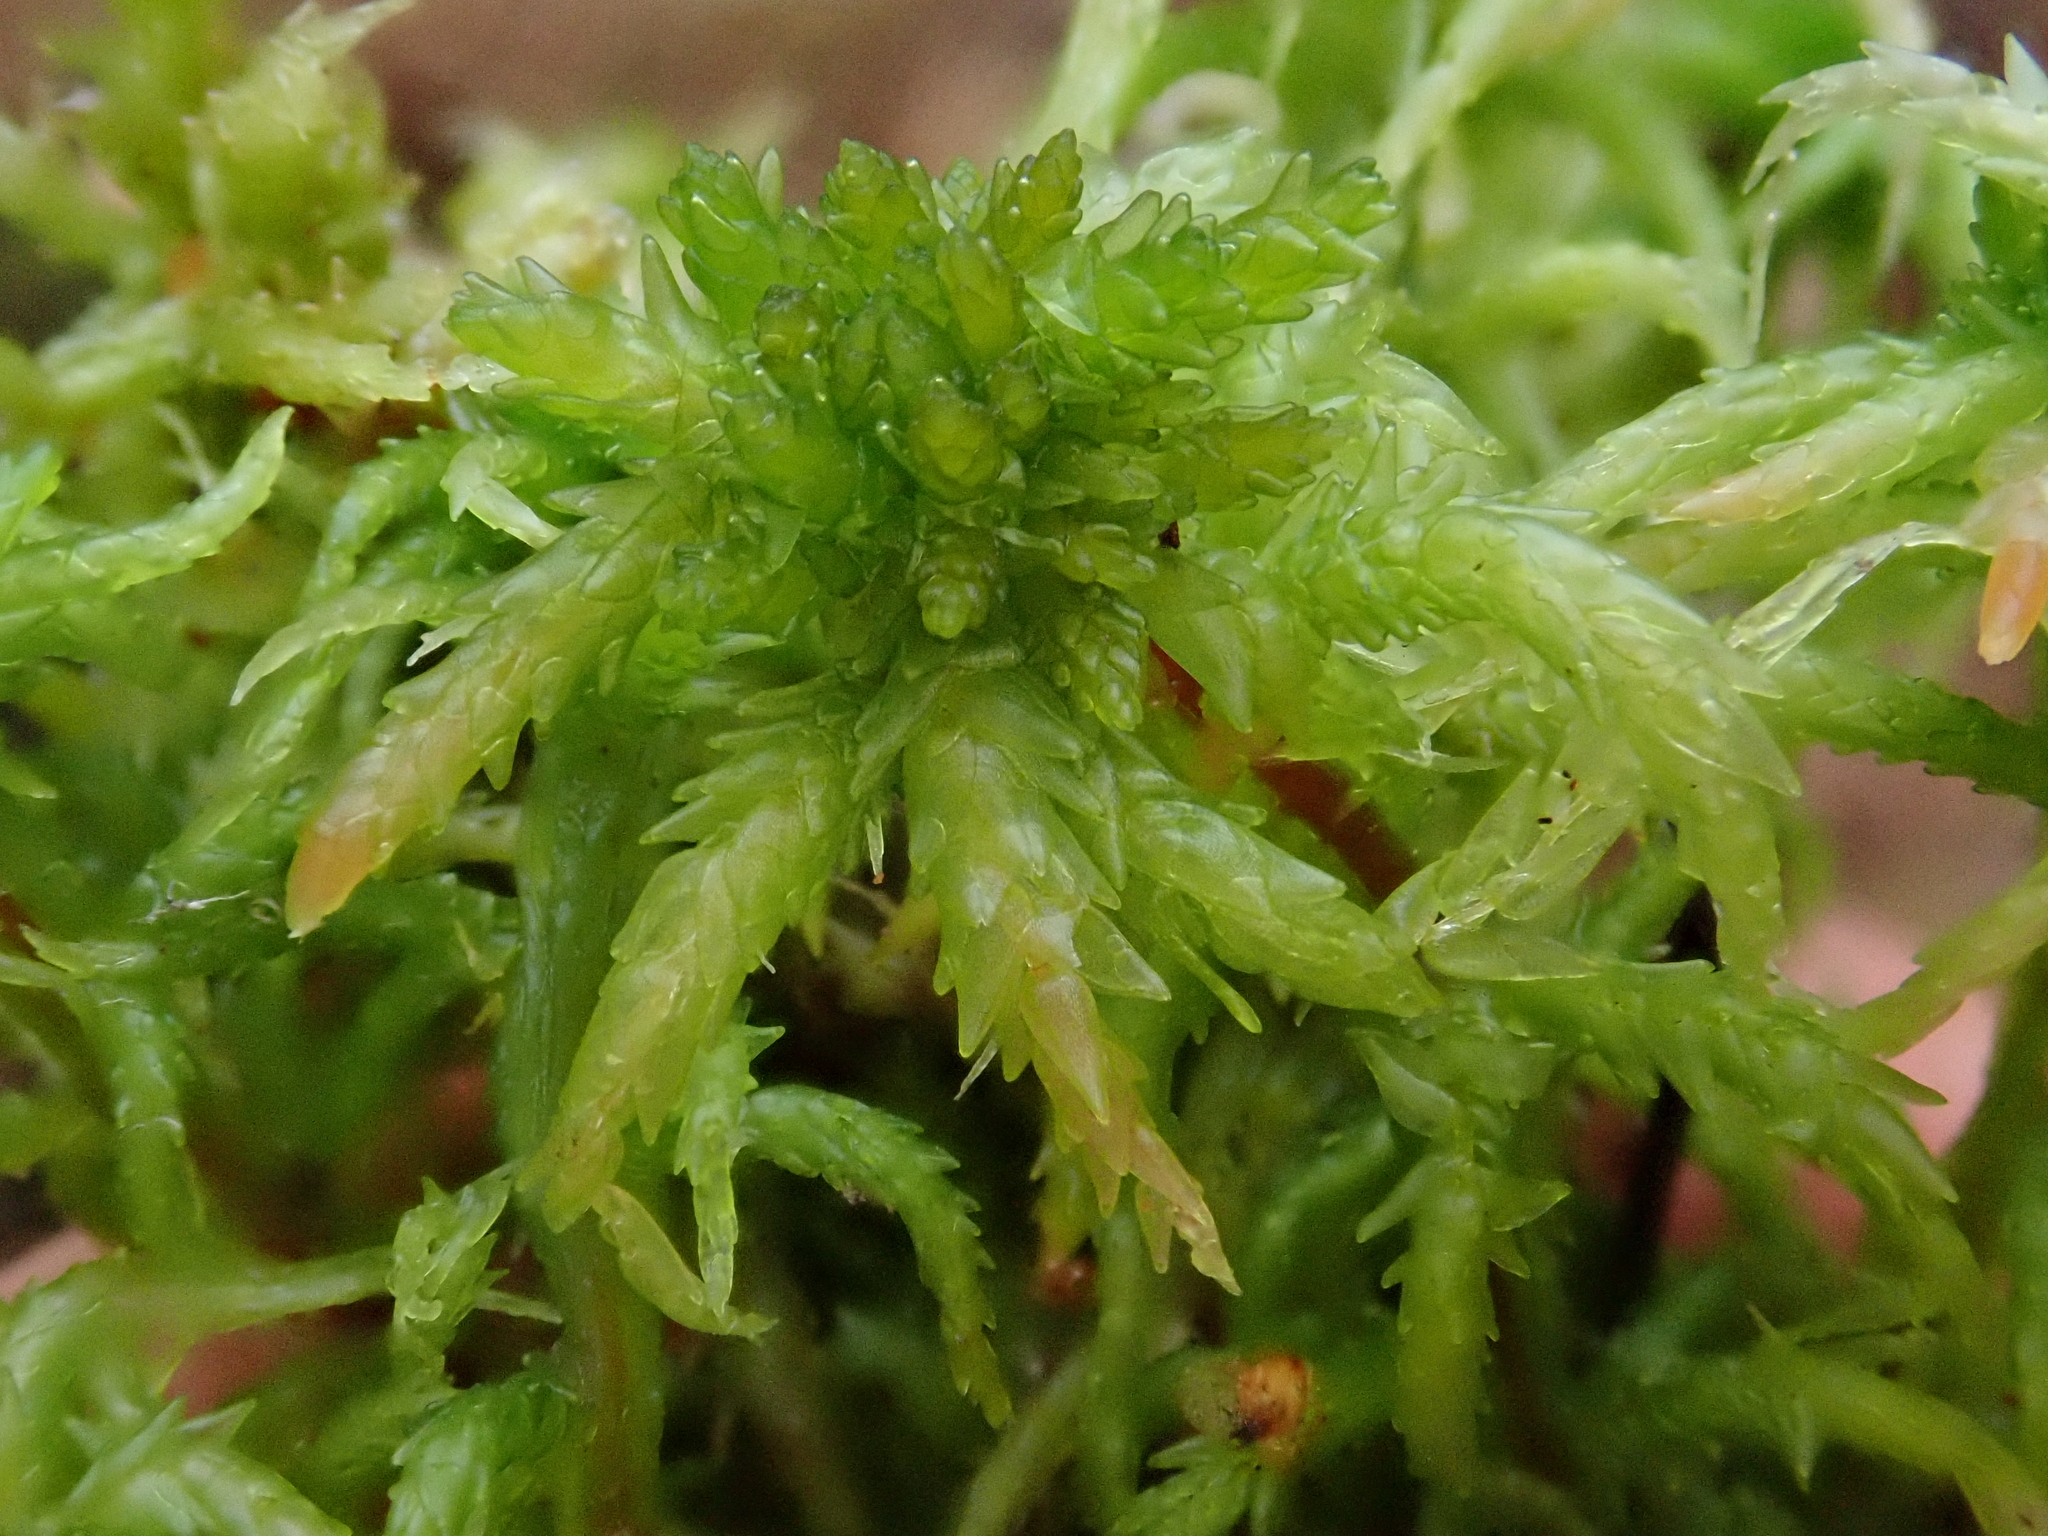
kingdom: Plantae
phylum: Bryophyta
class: Sphagnopsida
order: Sphagnales
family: Sphagnaceae
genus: Sphagnum
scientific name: Sphagnum palustre
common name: Blunt-leaved bog-moss
